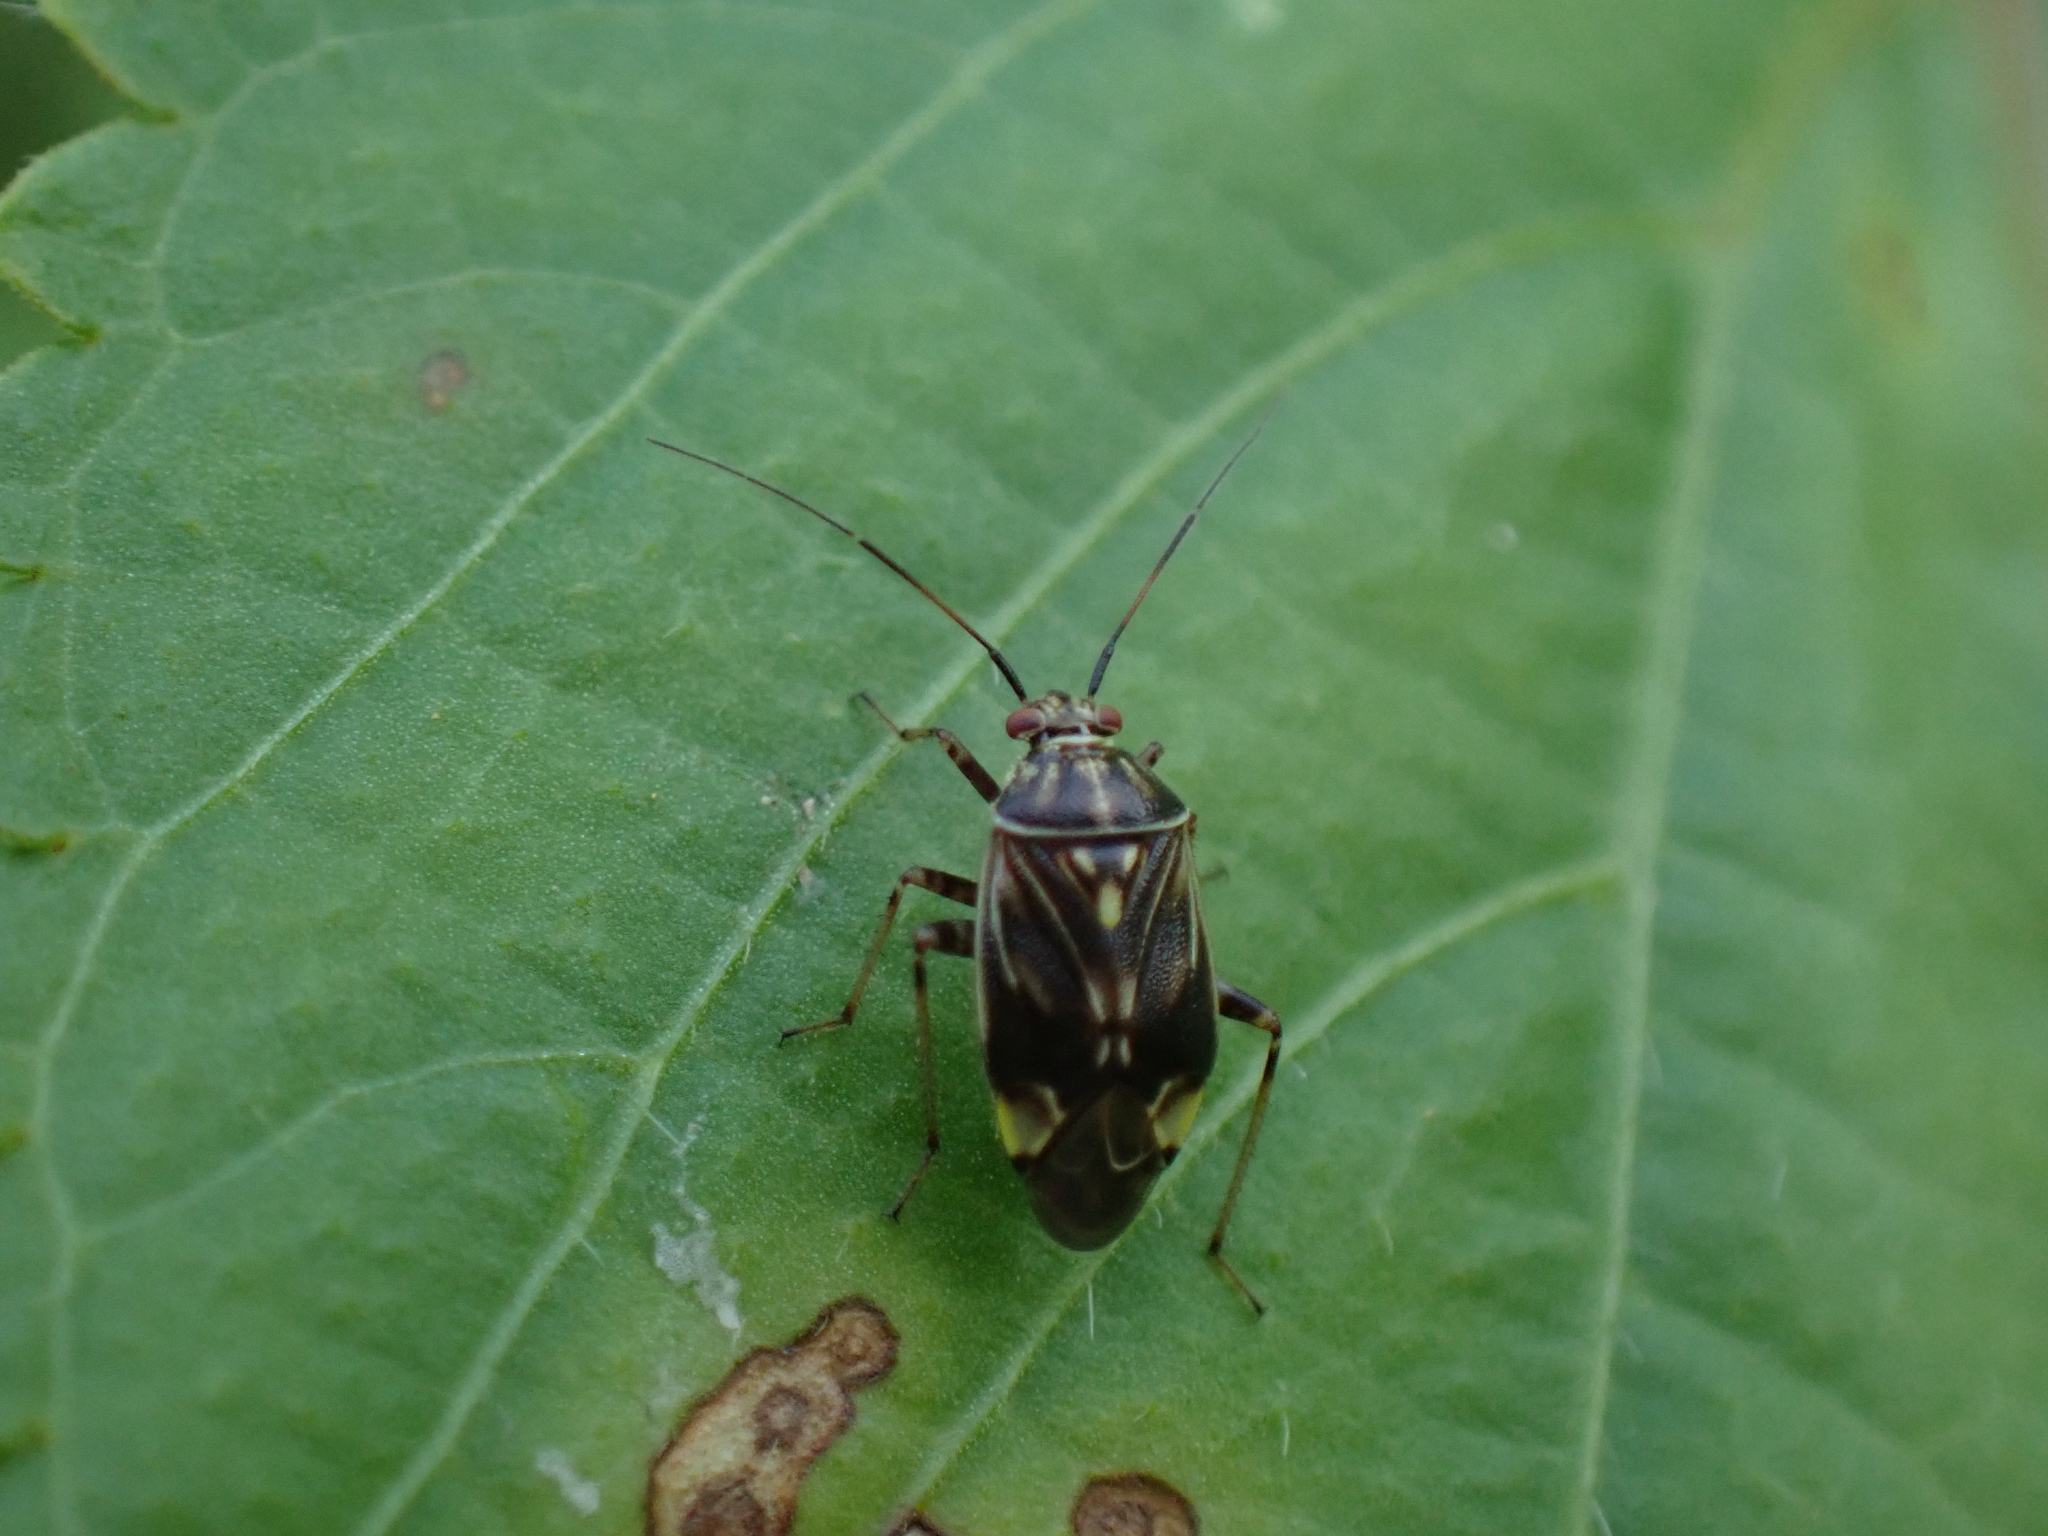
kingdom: Animalia
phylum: Arthropoda
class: Insecta
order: Hemiptera
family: Miridae
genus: Lygus
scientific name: Lygus lineolaris
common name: North american tarnished plant bug
